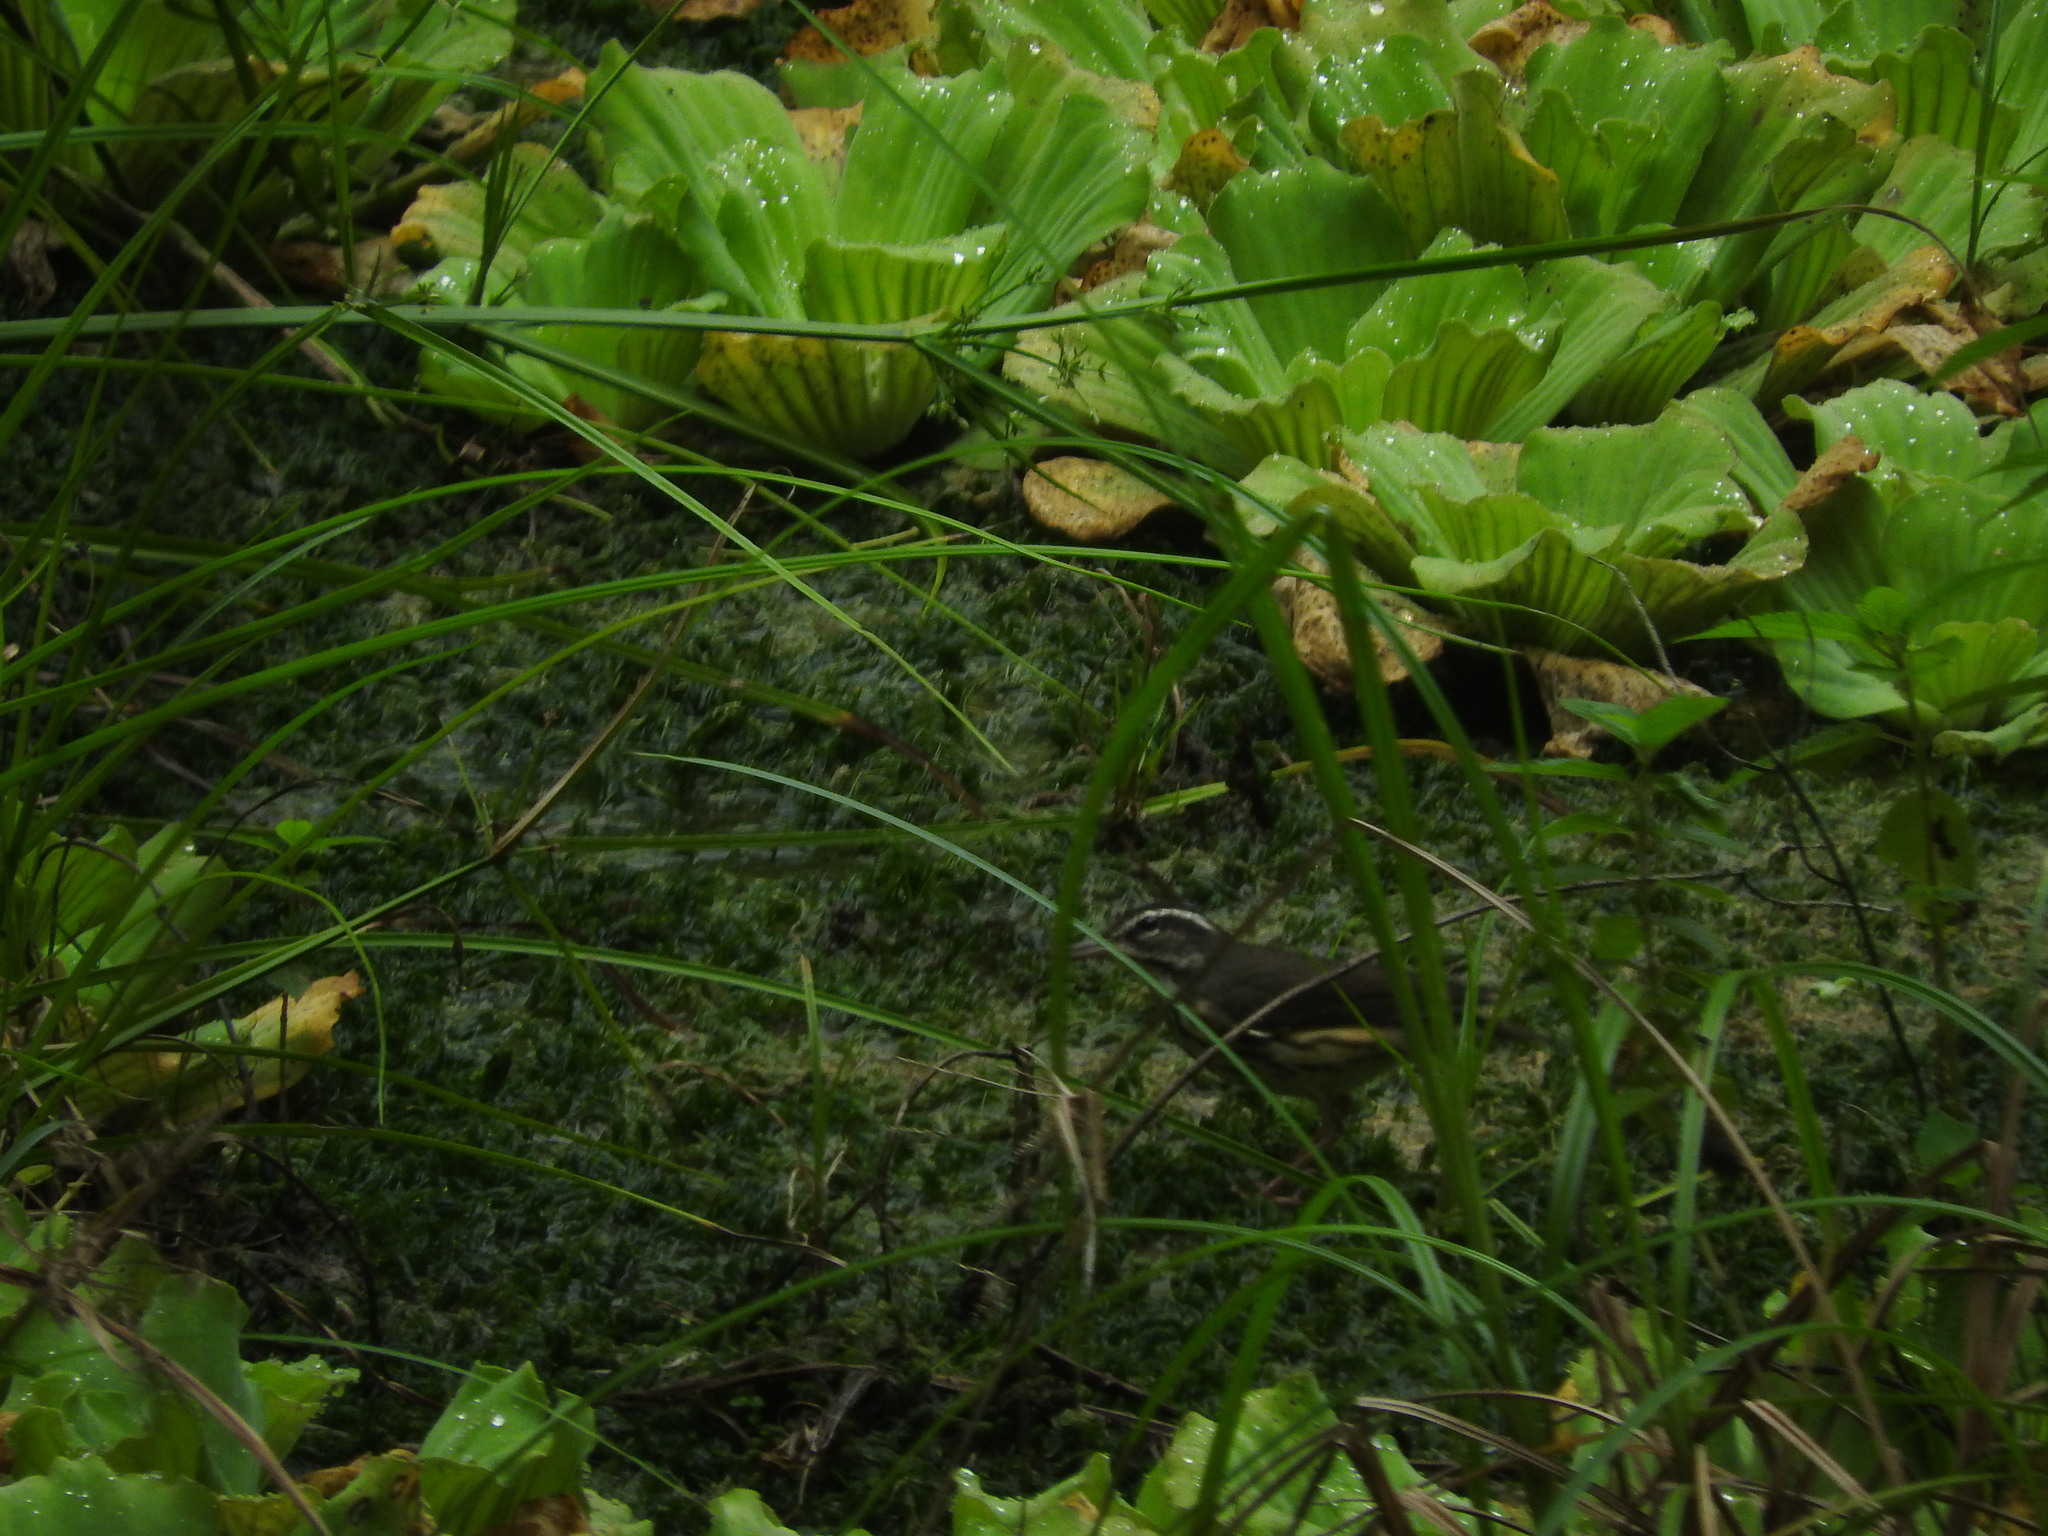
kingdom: Animalia
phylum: Chordata
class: Aves
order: Passeriformes
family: Parulidae
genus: Parkesia
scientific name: Parkesia motacilla
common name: Louisiana waterthrush
